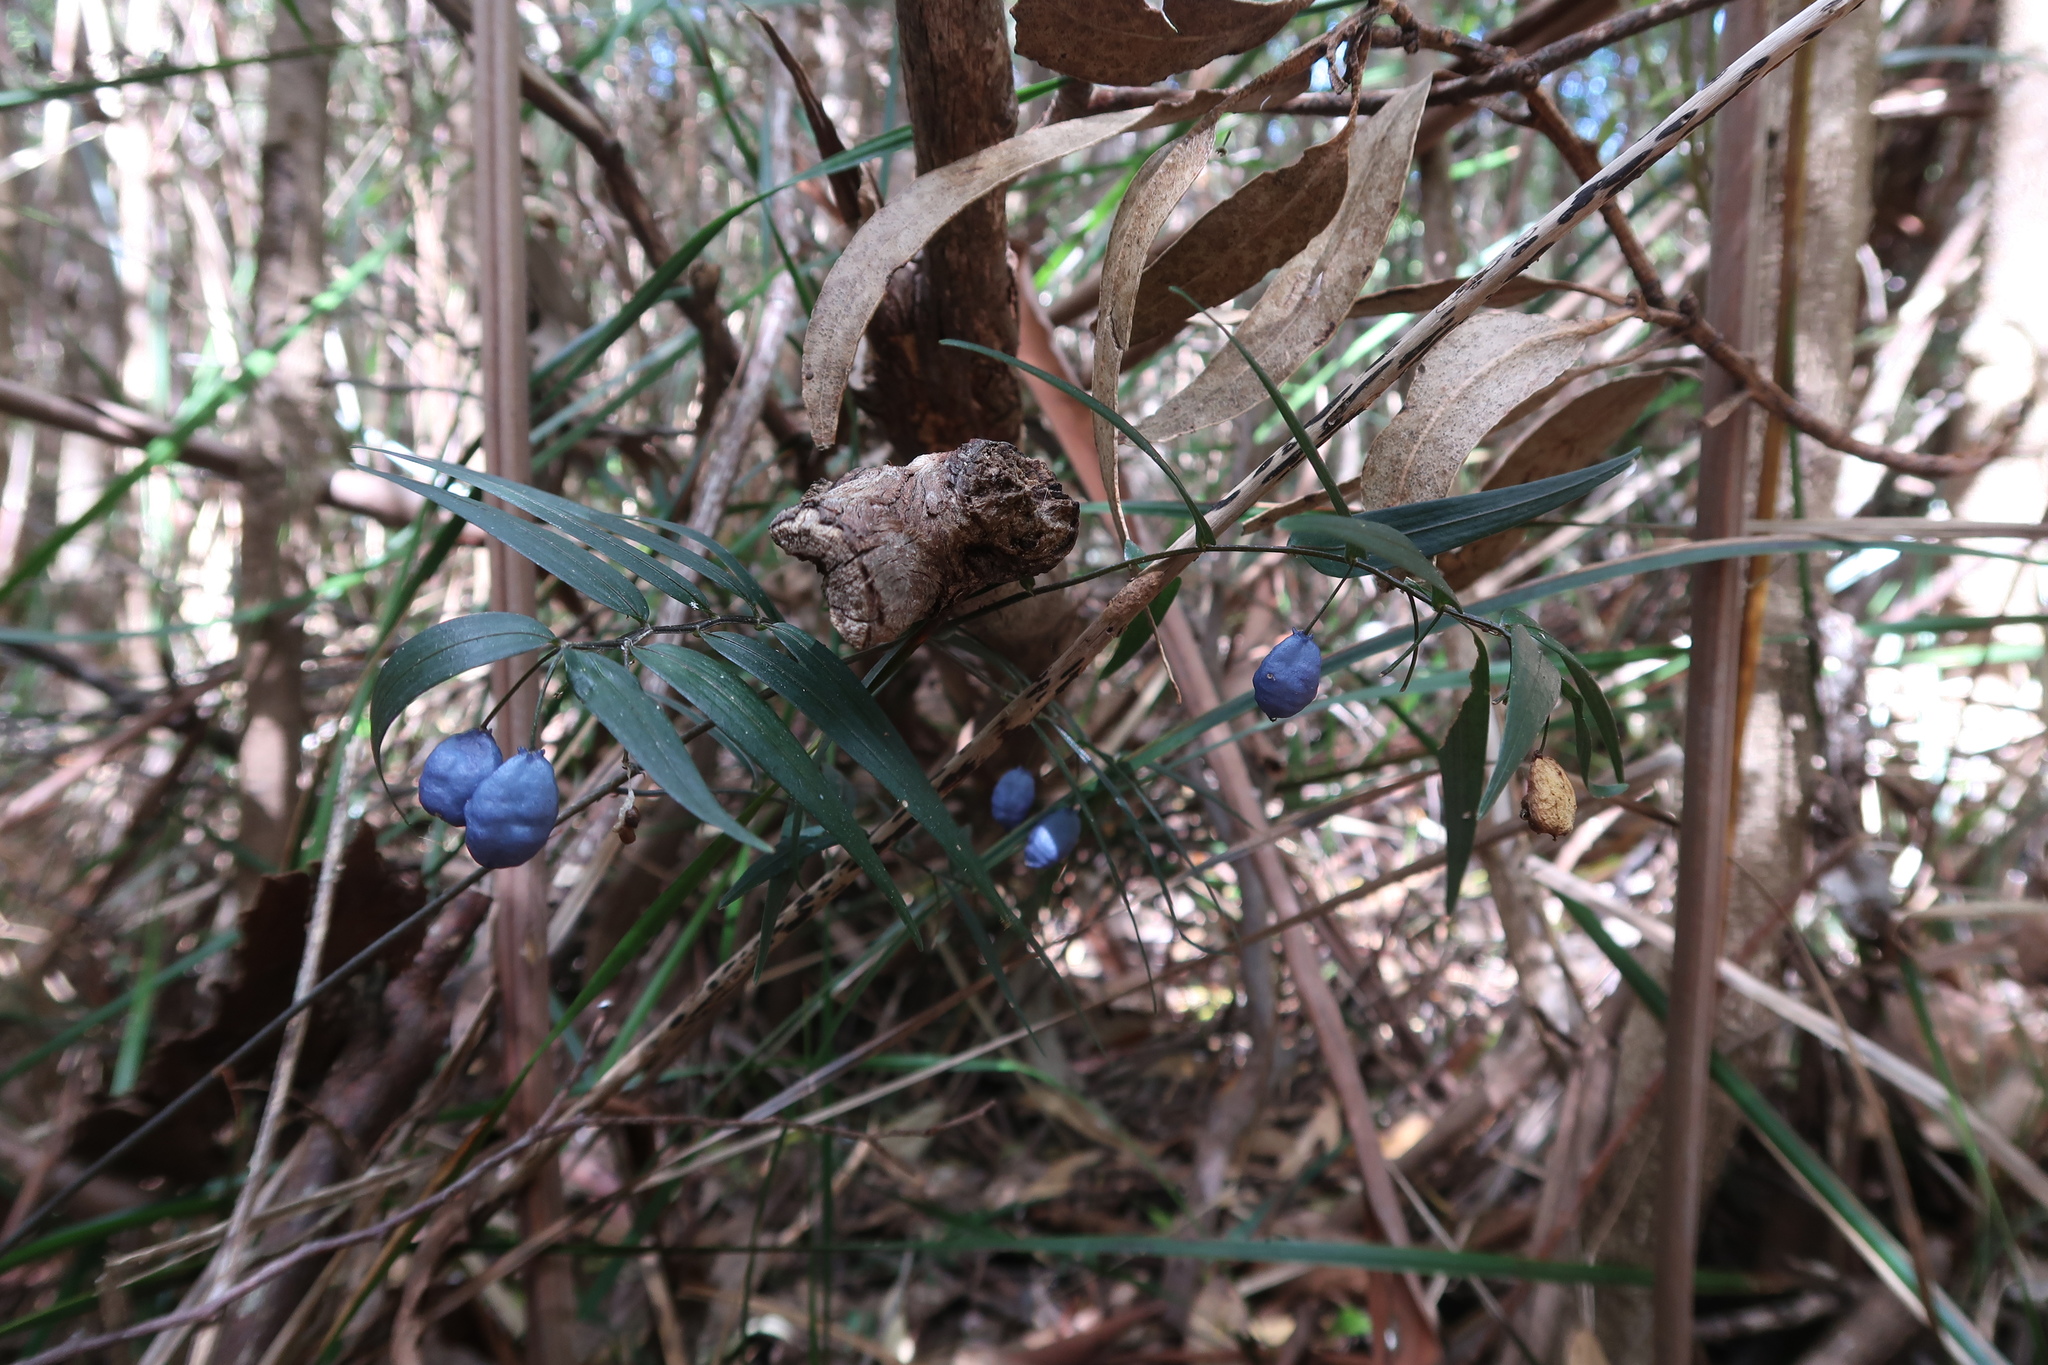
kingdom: Plantae
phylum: Tracheophyta
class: Liliopsida
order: Liliales
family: Alstroemeriaceae
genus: Drymophila
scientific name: Drymophila cyanocarpa
